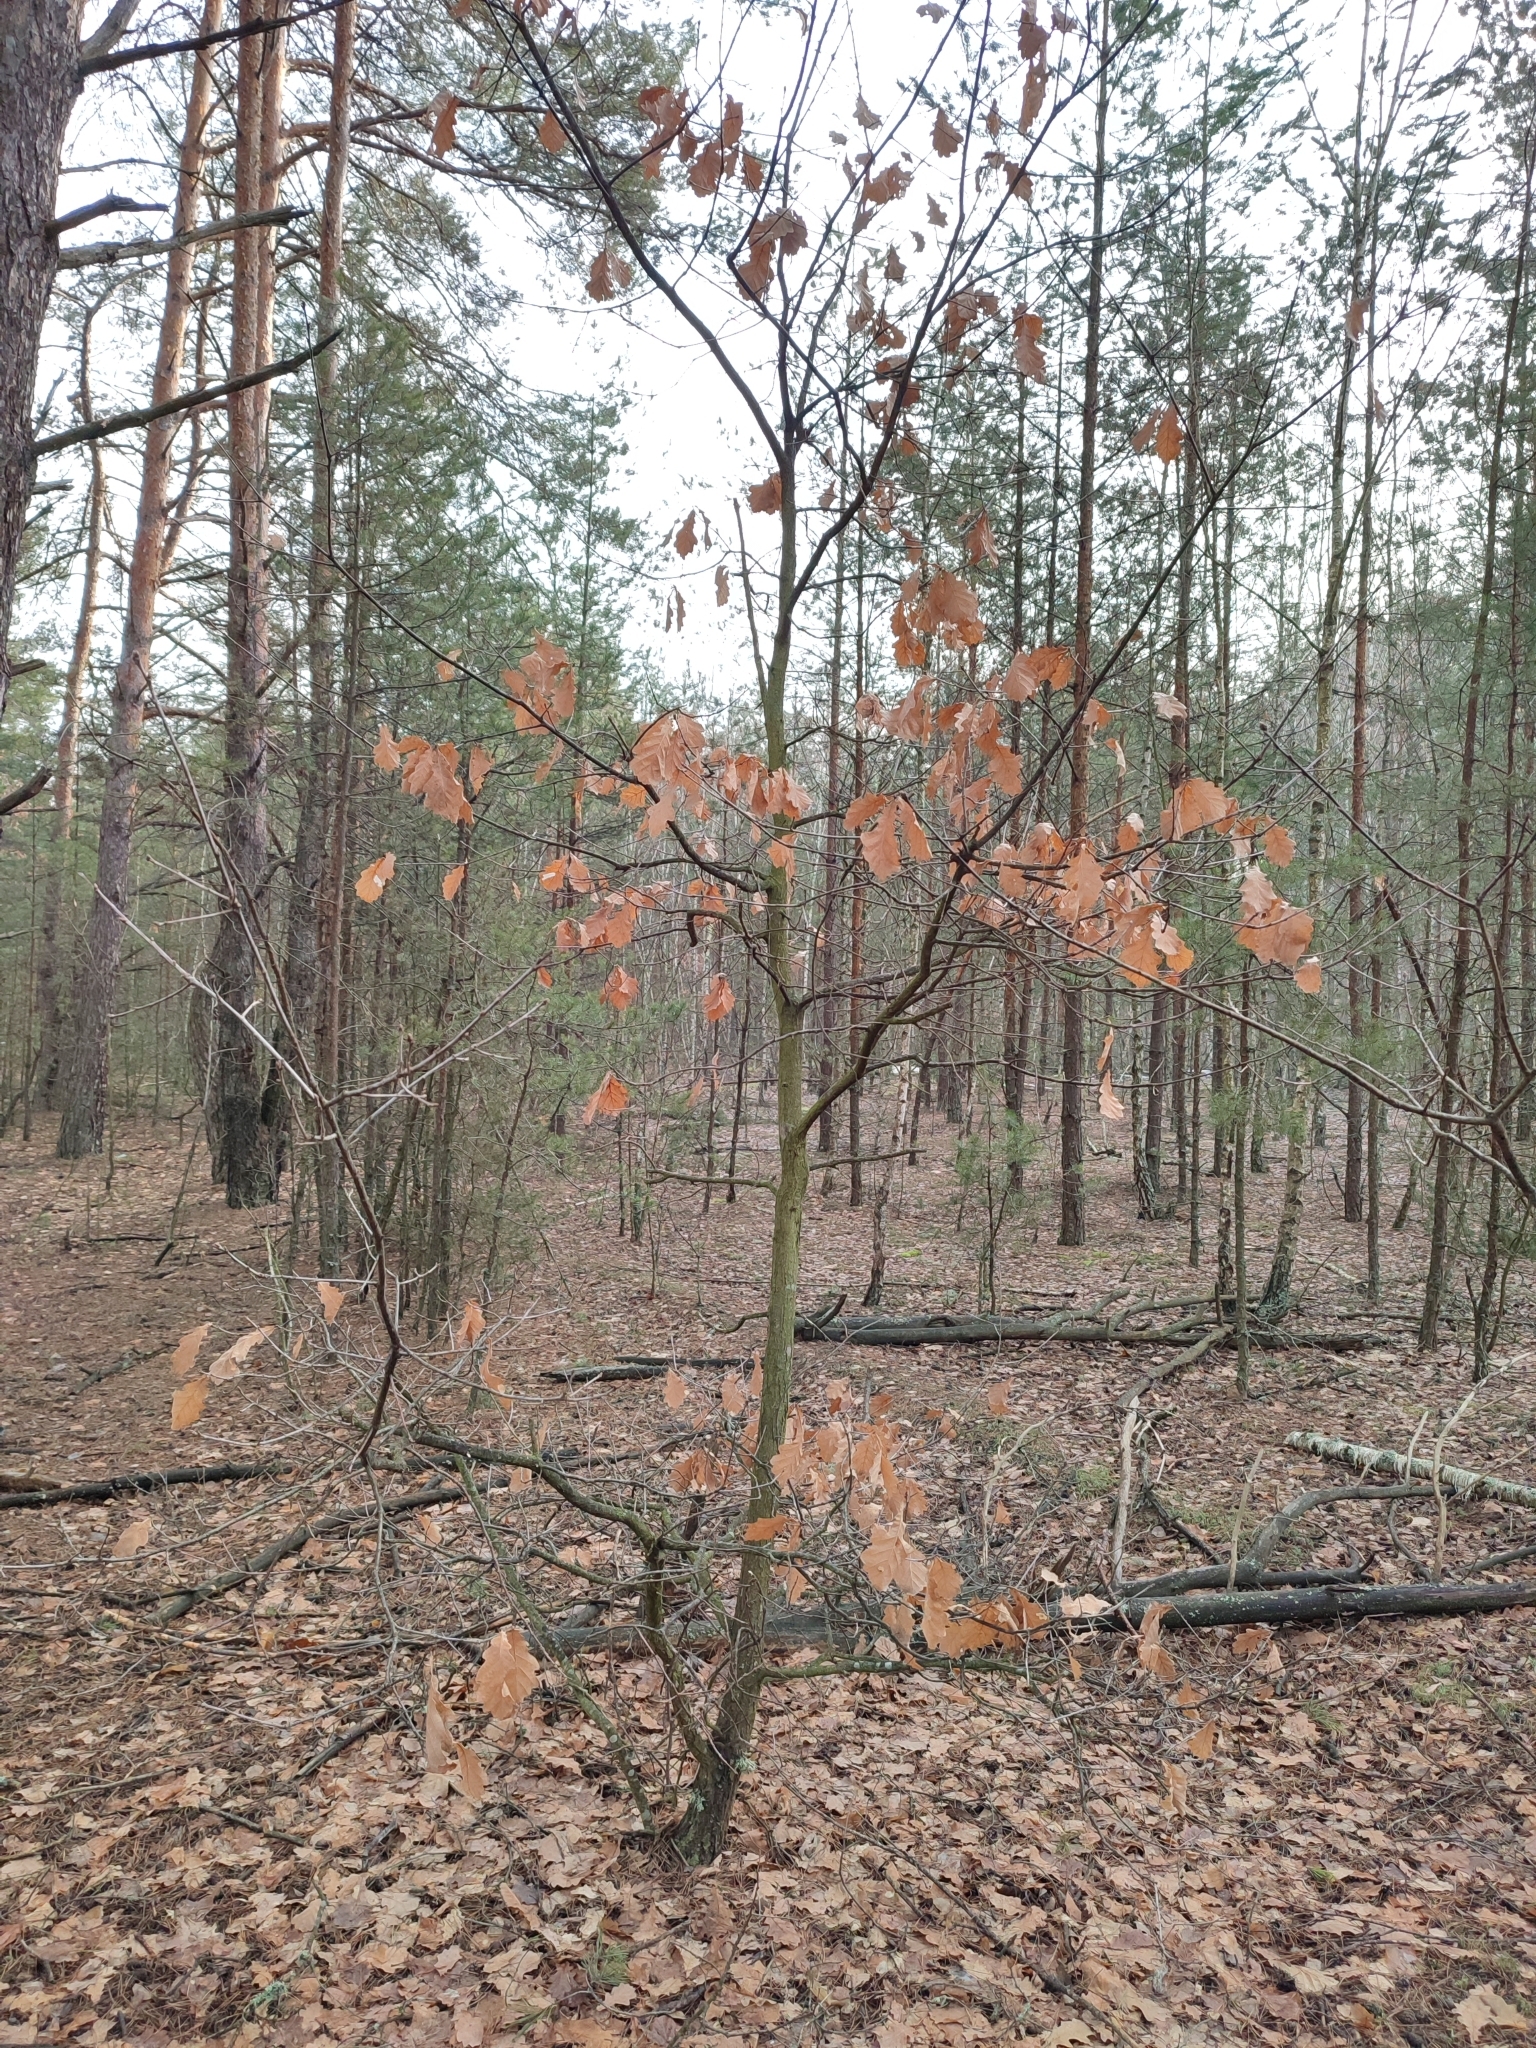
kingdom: Plantae
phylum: Tracheophyta
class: Magnoliopsida
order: Fagales
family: Fagaceae
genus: Quercus
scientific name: Quercus robur
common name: Pedunculate oak
